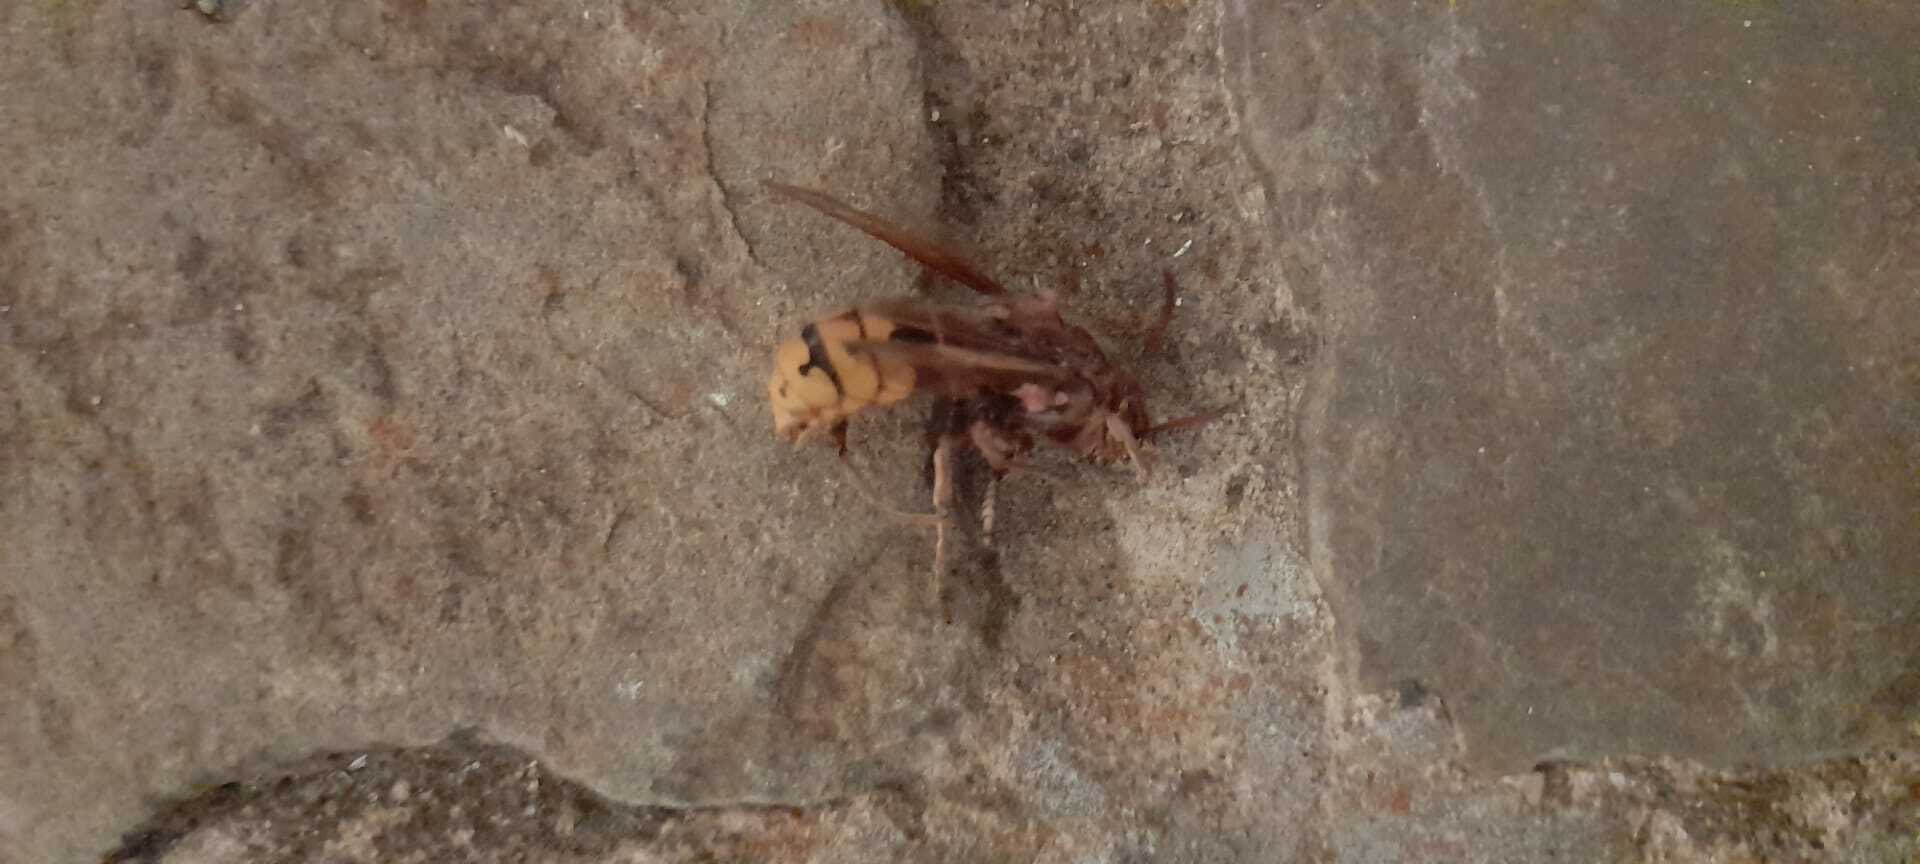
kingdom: Animalia
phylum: Arthropoda
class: Insecta
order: Hymenoptera
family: Vespidae
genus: Vespa
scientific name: Vespa crabro
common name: Hornet
